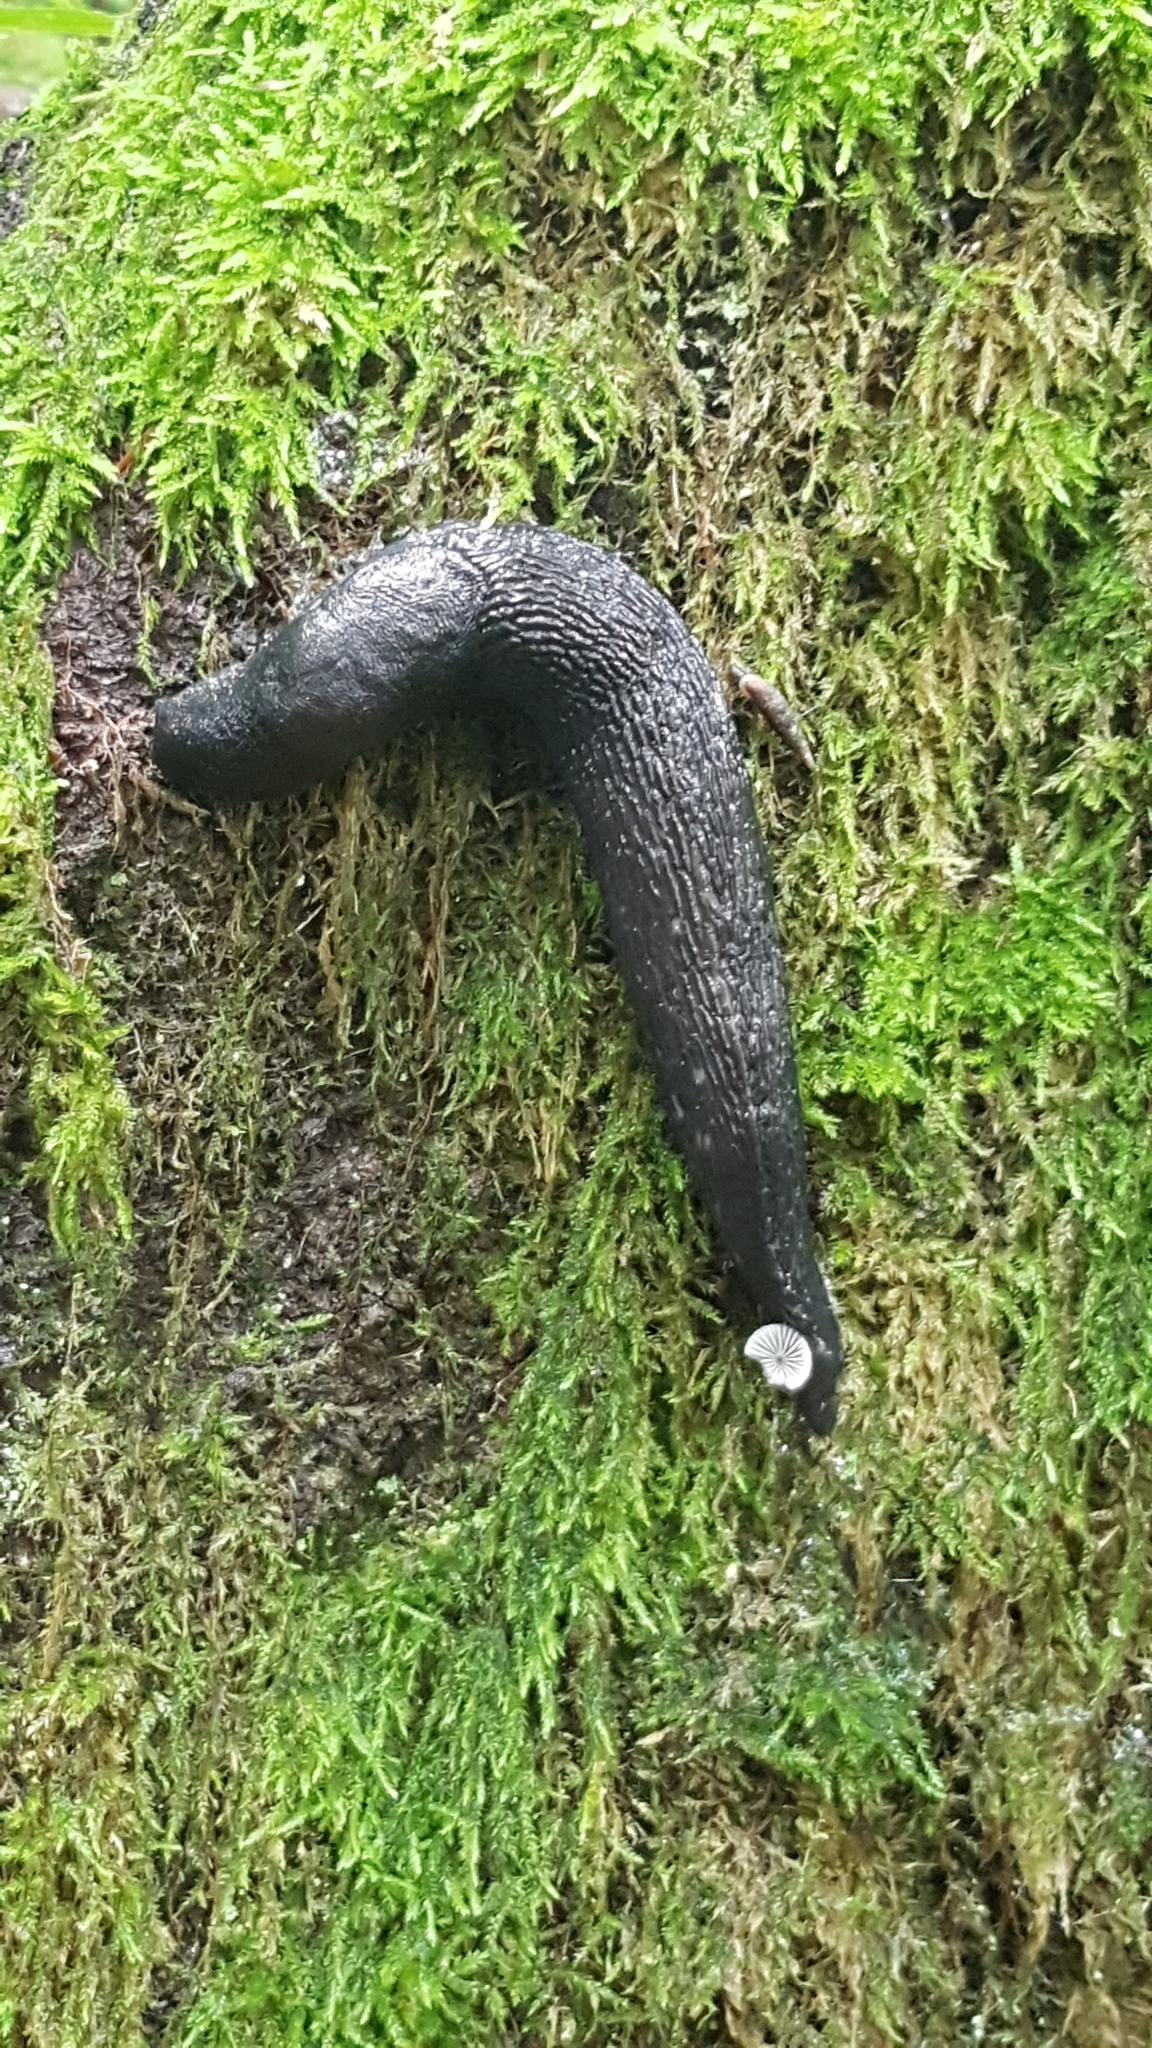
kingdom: Animalia
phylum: Mollusca
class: Gastropoda
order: Stylommatophora
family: Limacidae
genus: Limax
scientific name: Limax cinereoniger
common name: Ash-black slug
